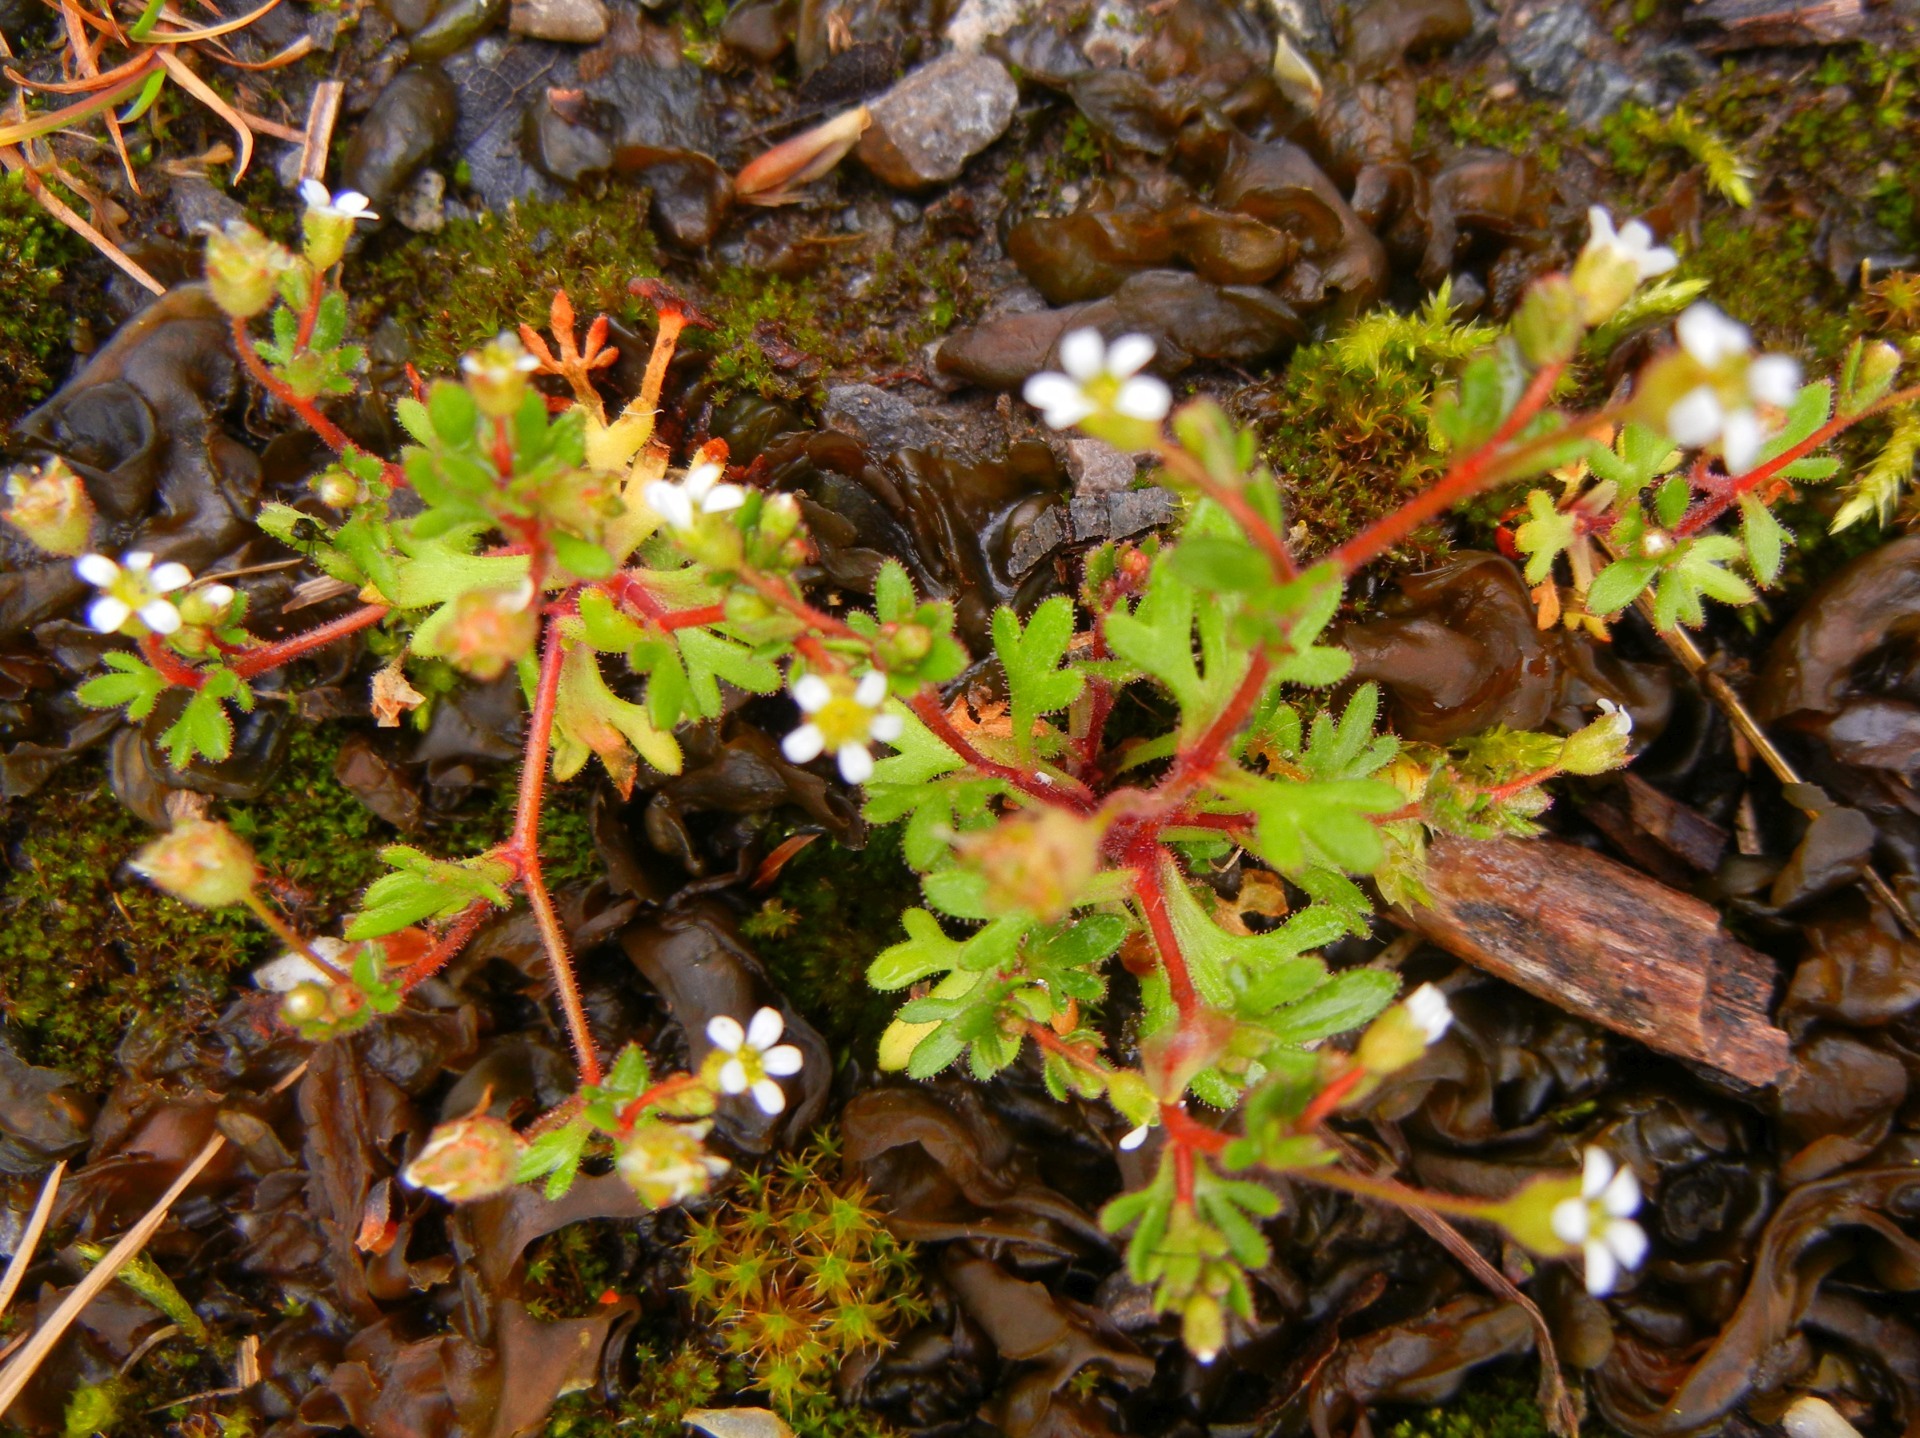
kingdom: Plantae
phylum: Tracheophyta
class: Magnoliopsida
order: Saxifragales
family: Saxifragaceae
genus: Saxifraga
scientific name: Saxifraga tridactylites
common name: Rue-leaved saxifrage
